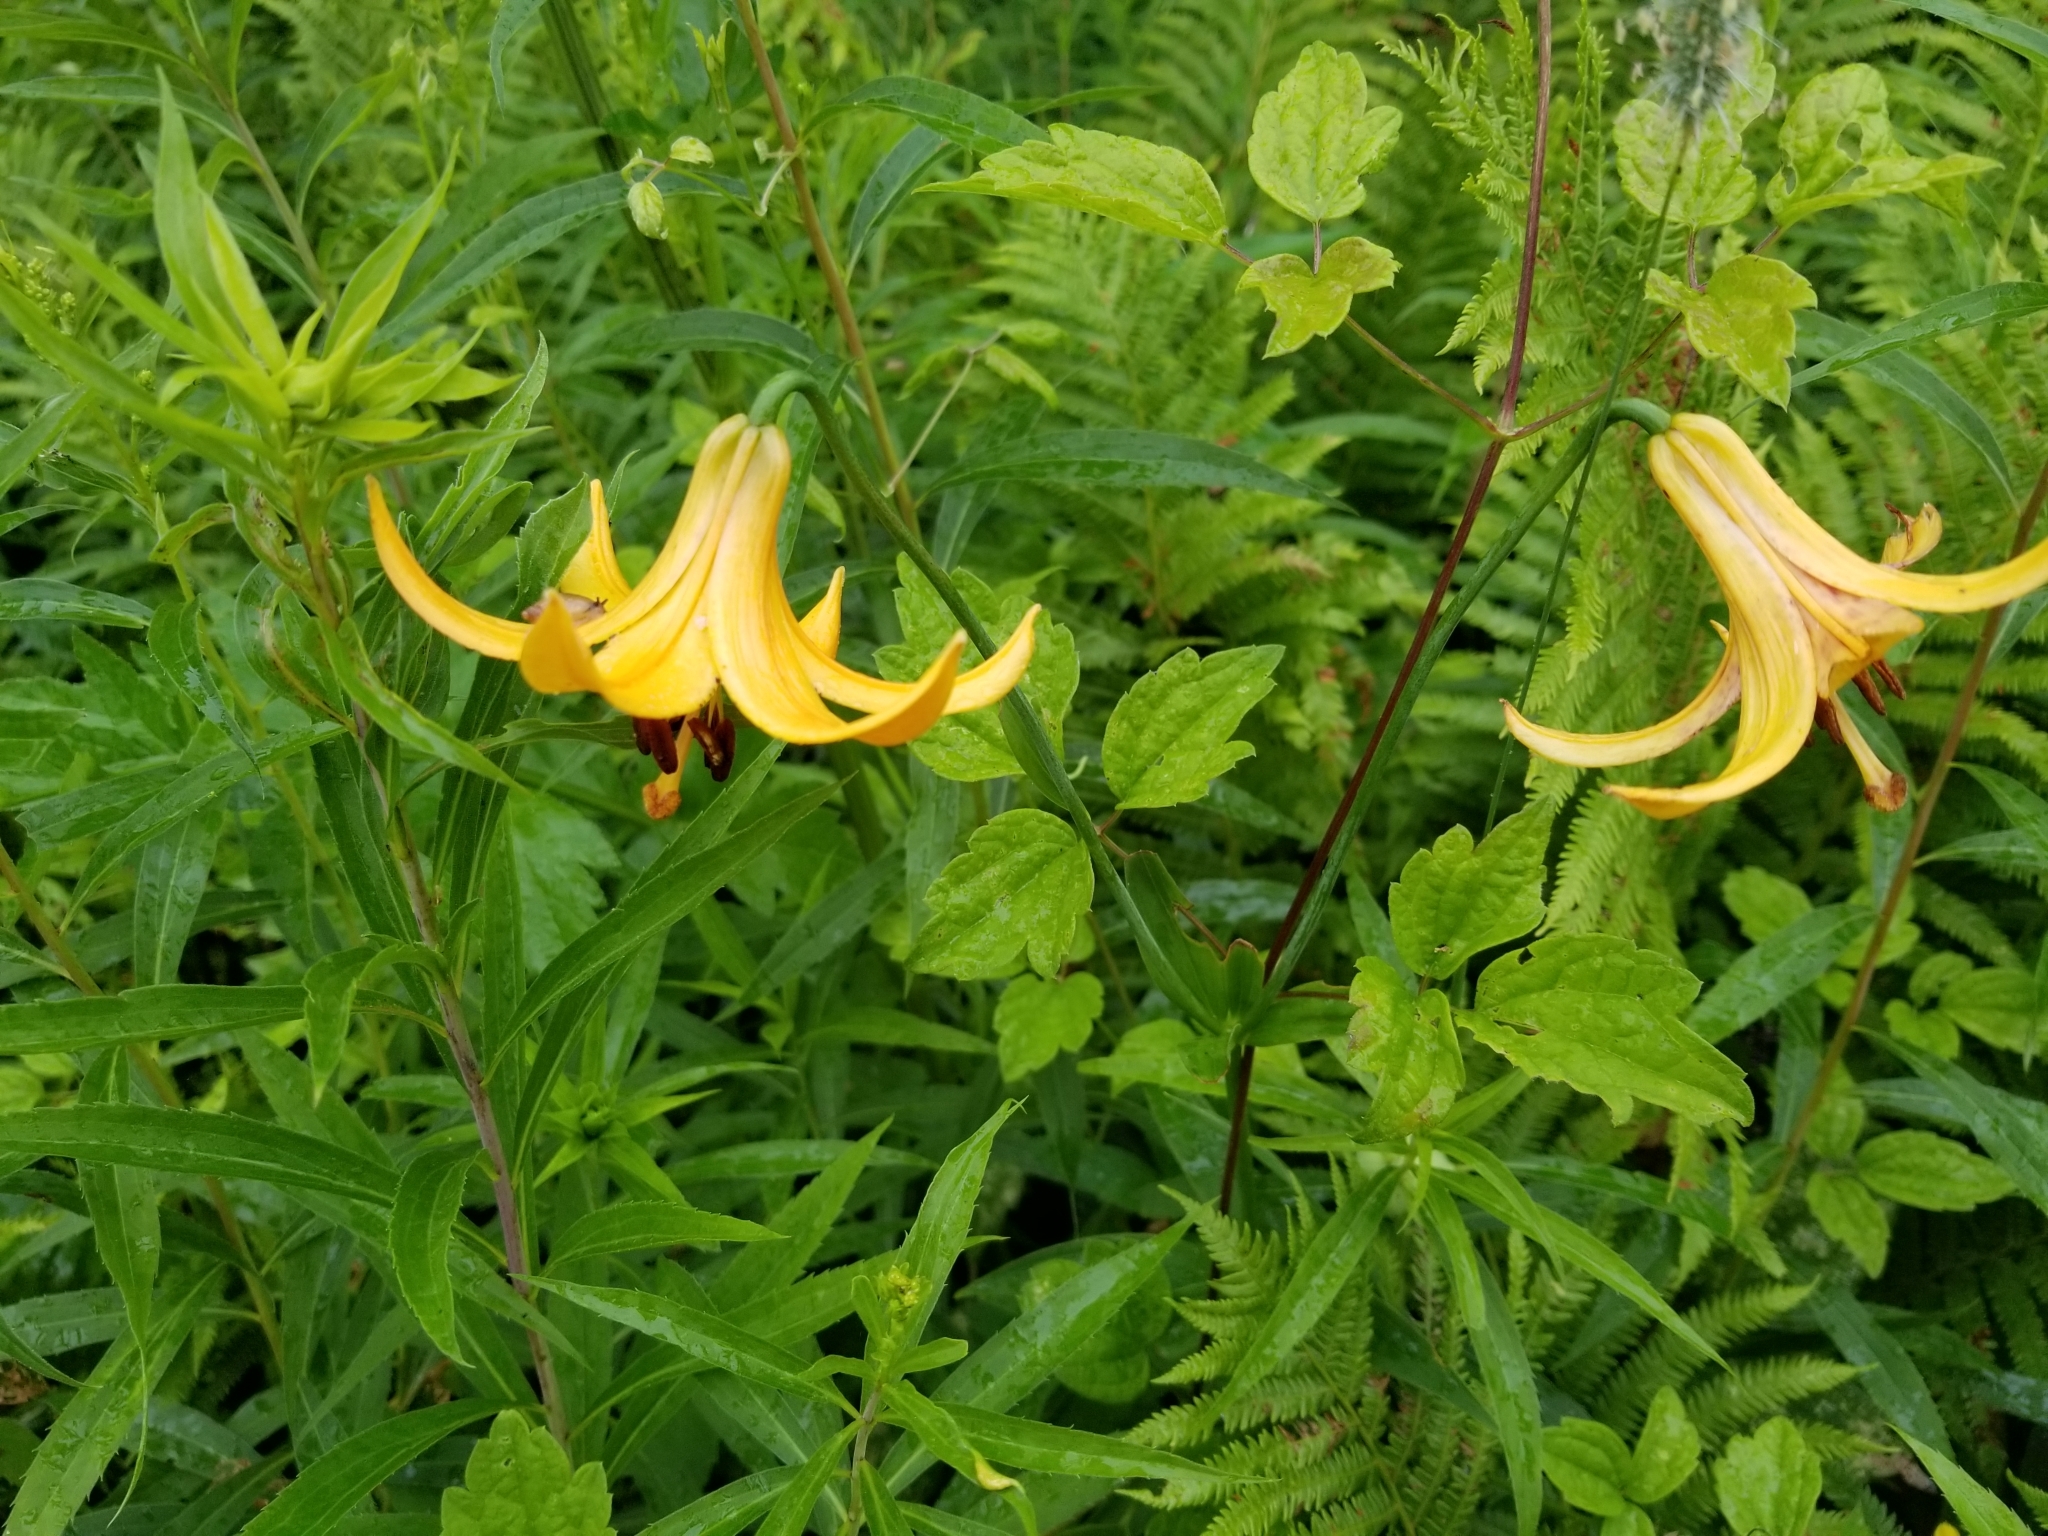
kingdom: Plantae
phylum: Tracheophyta
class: Liliopsida
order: Liliales
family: Liliaceae
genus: Lilium
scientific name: Lilium canadense
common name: Canada lily
